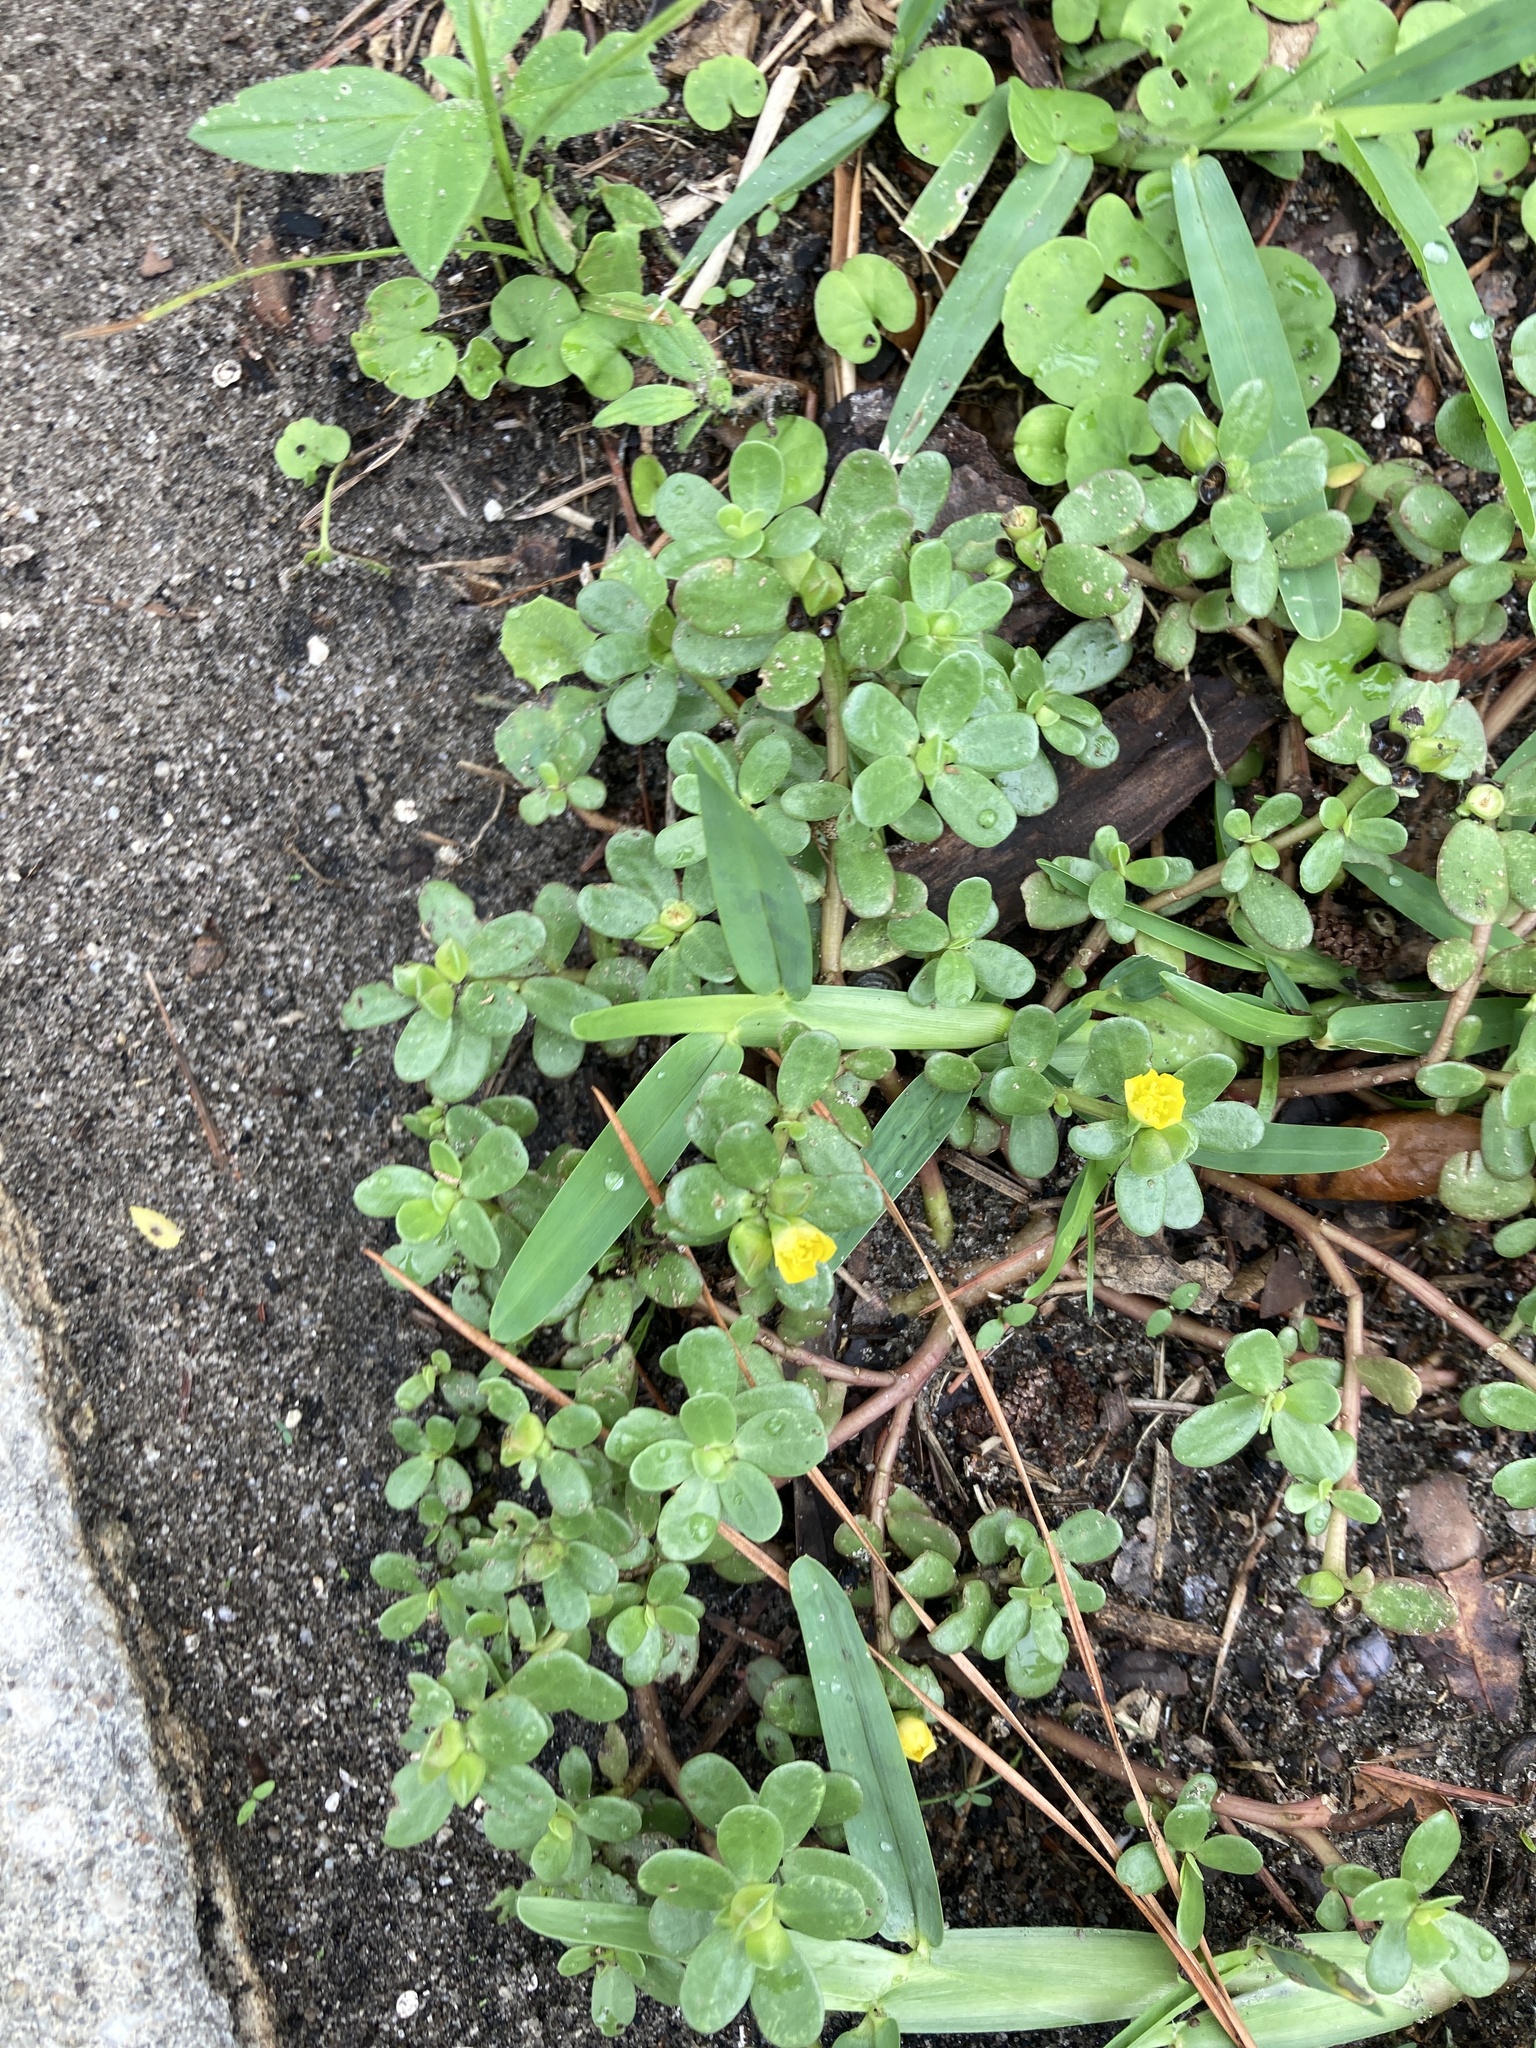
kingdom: Plantae
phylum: Tracheophyta
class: Magnoliopsida
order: Caryophyllales
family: Portulacaceae
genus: Portulaca
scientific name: Portulaca oleracea
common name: Common purslane
